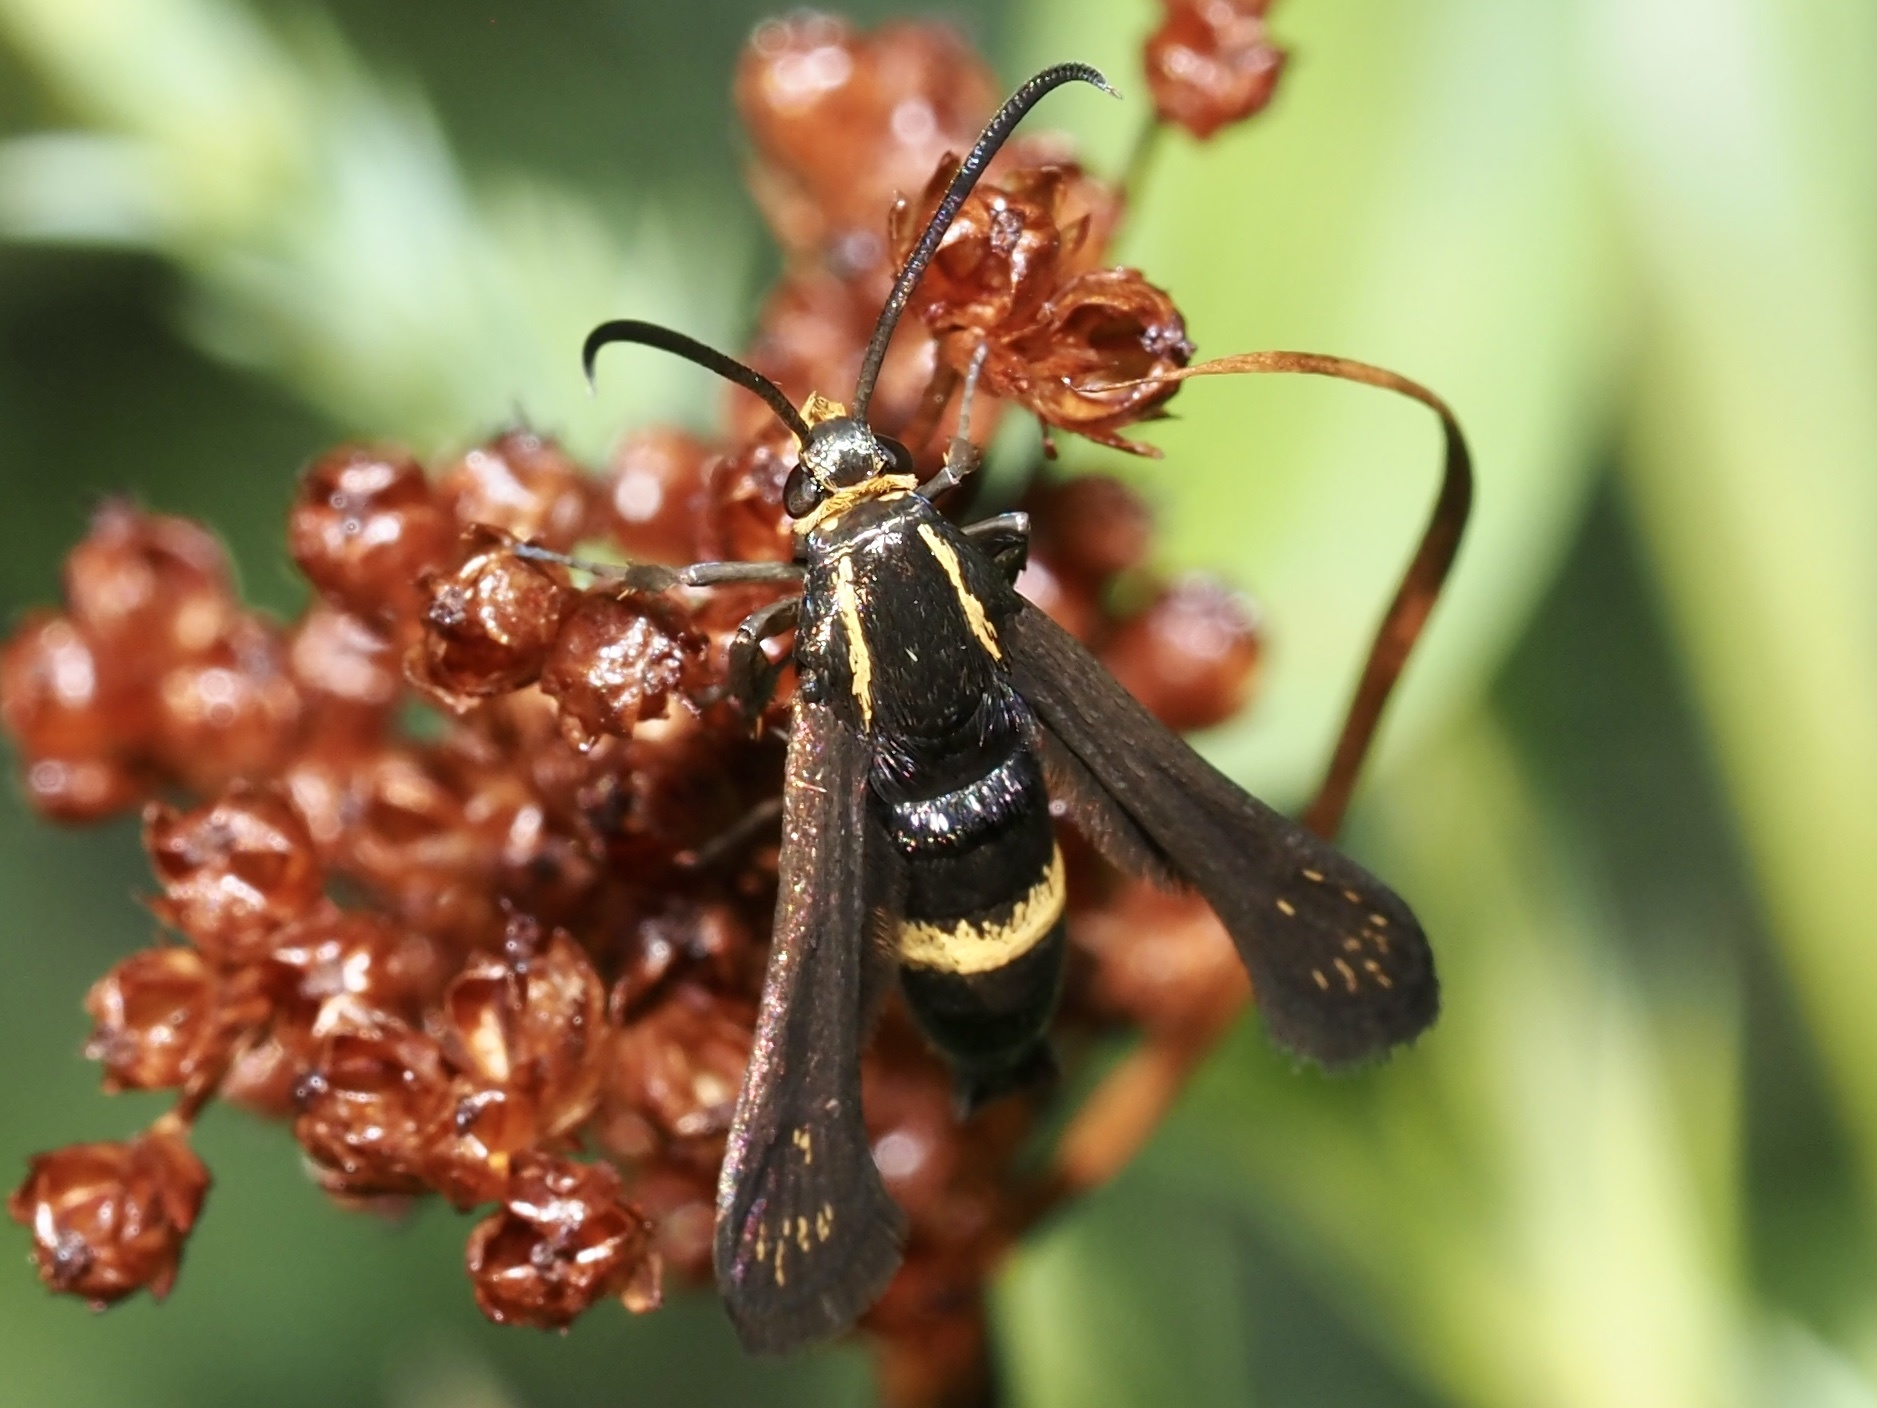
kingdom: Animalia
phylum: Arthropoda
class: Insecta
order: Lepidoptera
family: Sesiidae
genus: Carmenta
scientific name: Carmenta pyralidiformis
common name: Boneset borer moth
